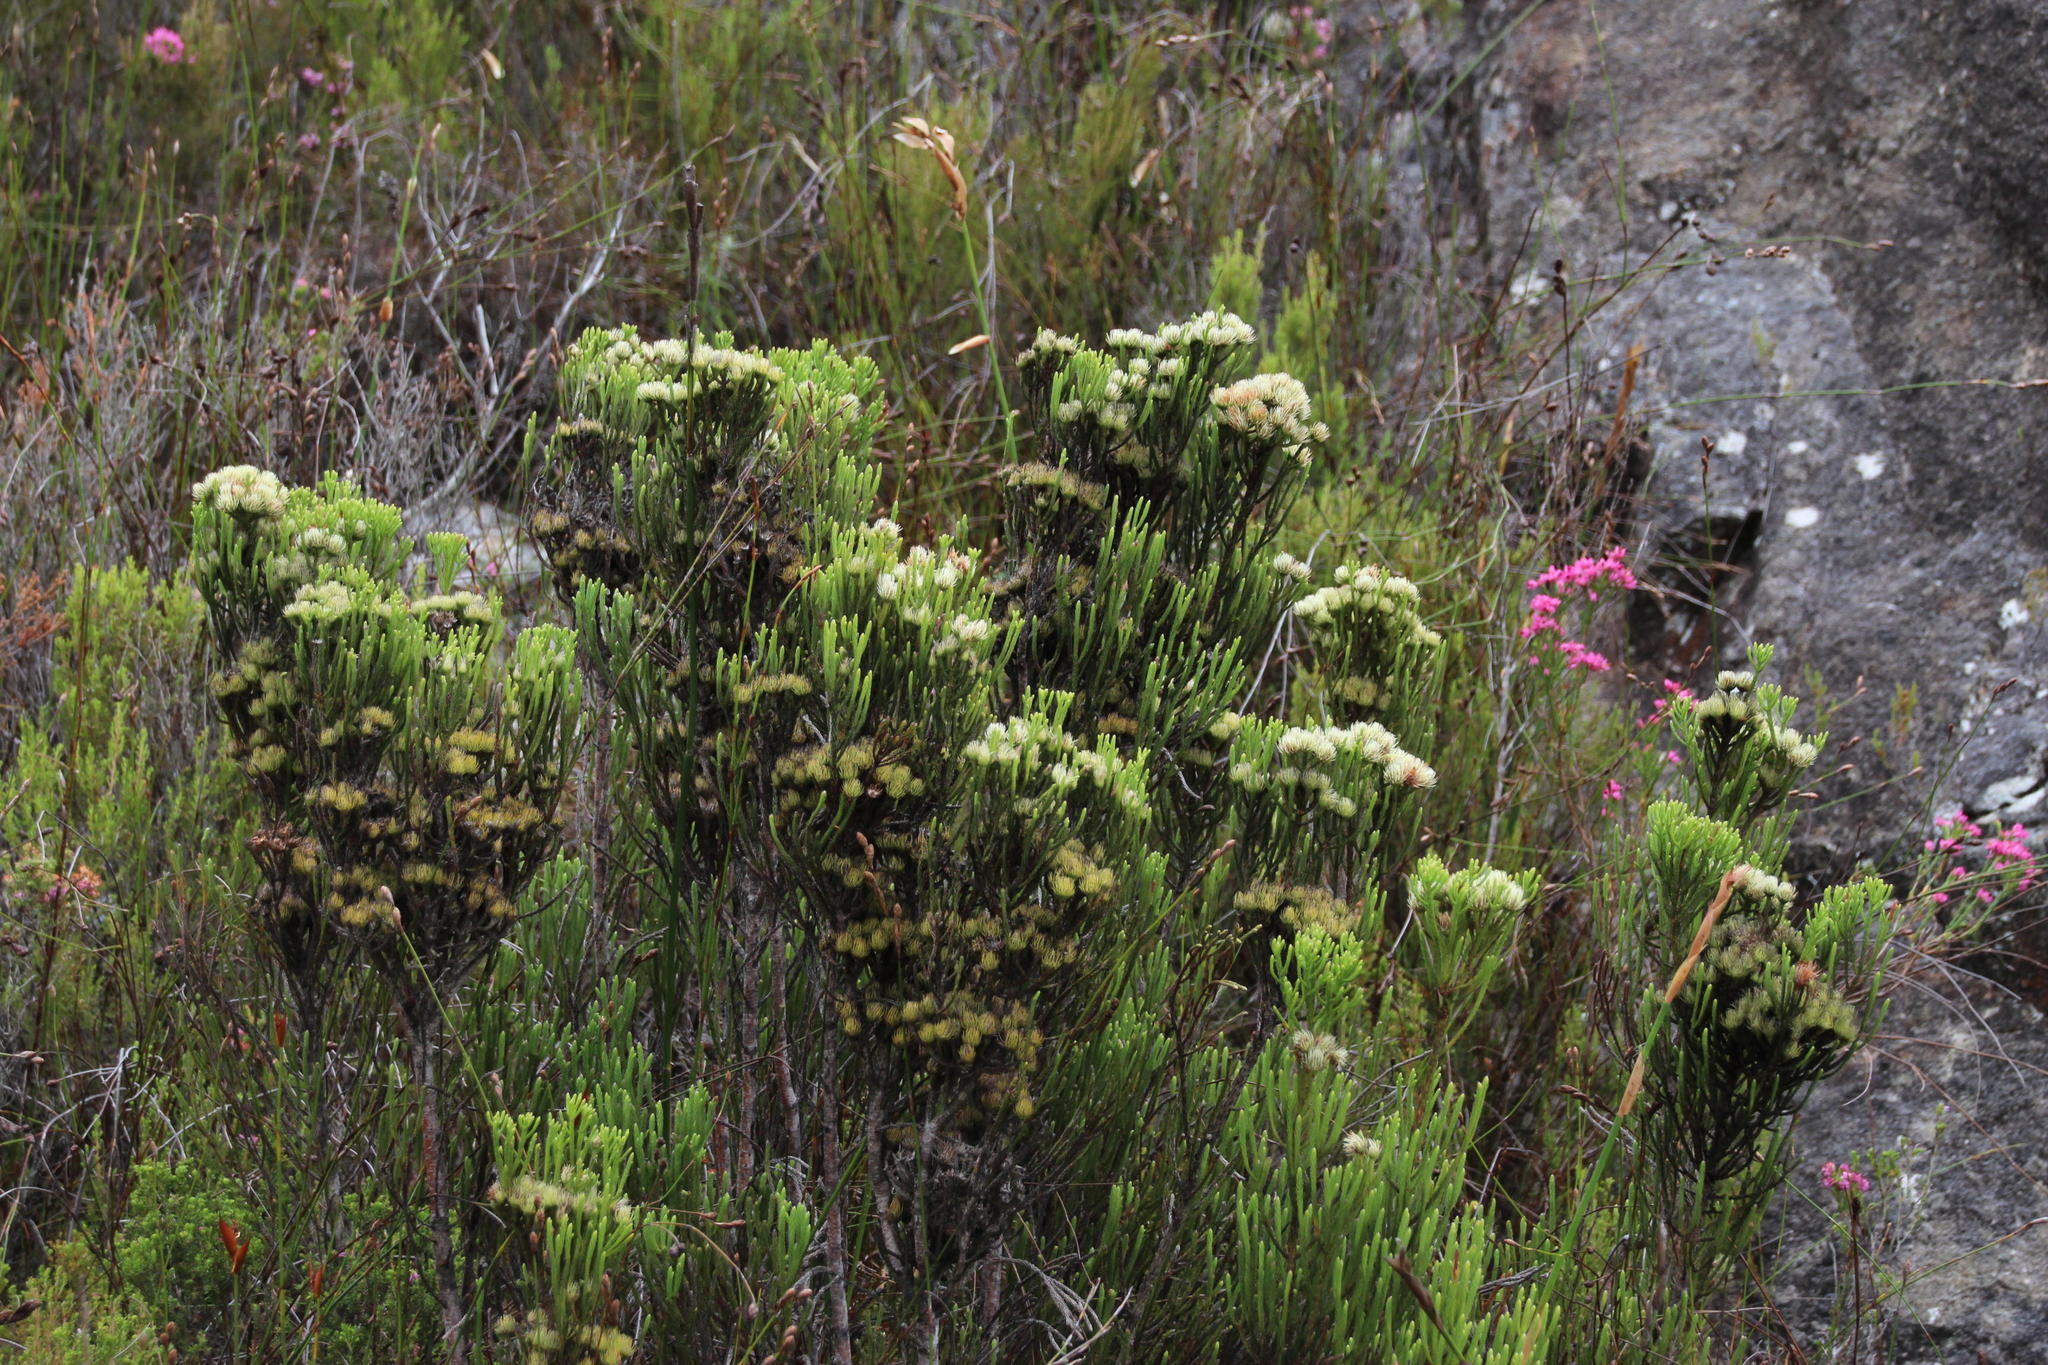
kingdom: Plantae
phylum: Tracheophyta
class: Magnoliopsida
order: Bruniales
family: Bruniaceae
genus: Brunia
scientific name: Brunia paleacea
